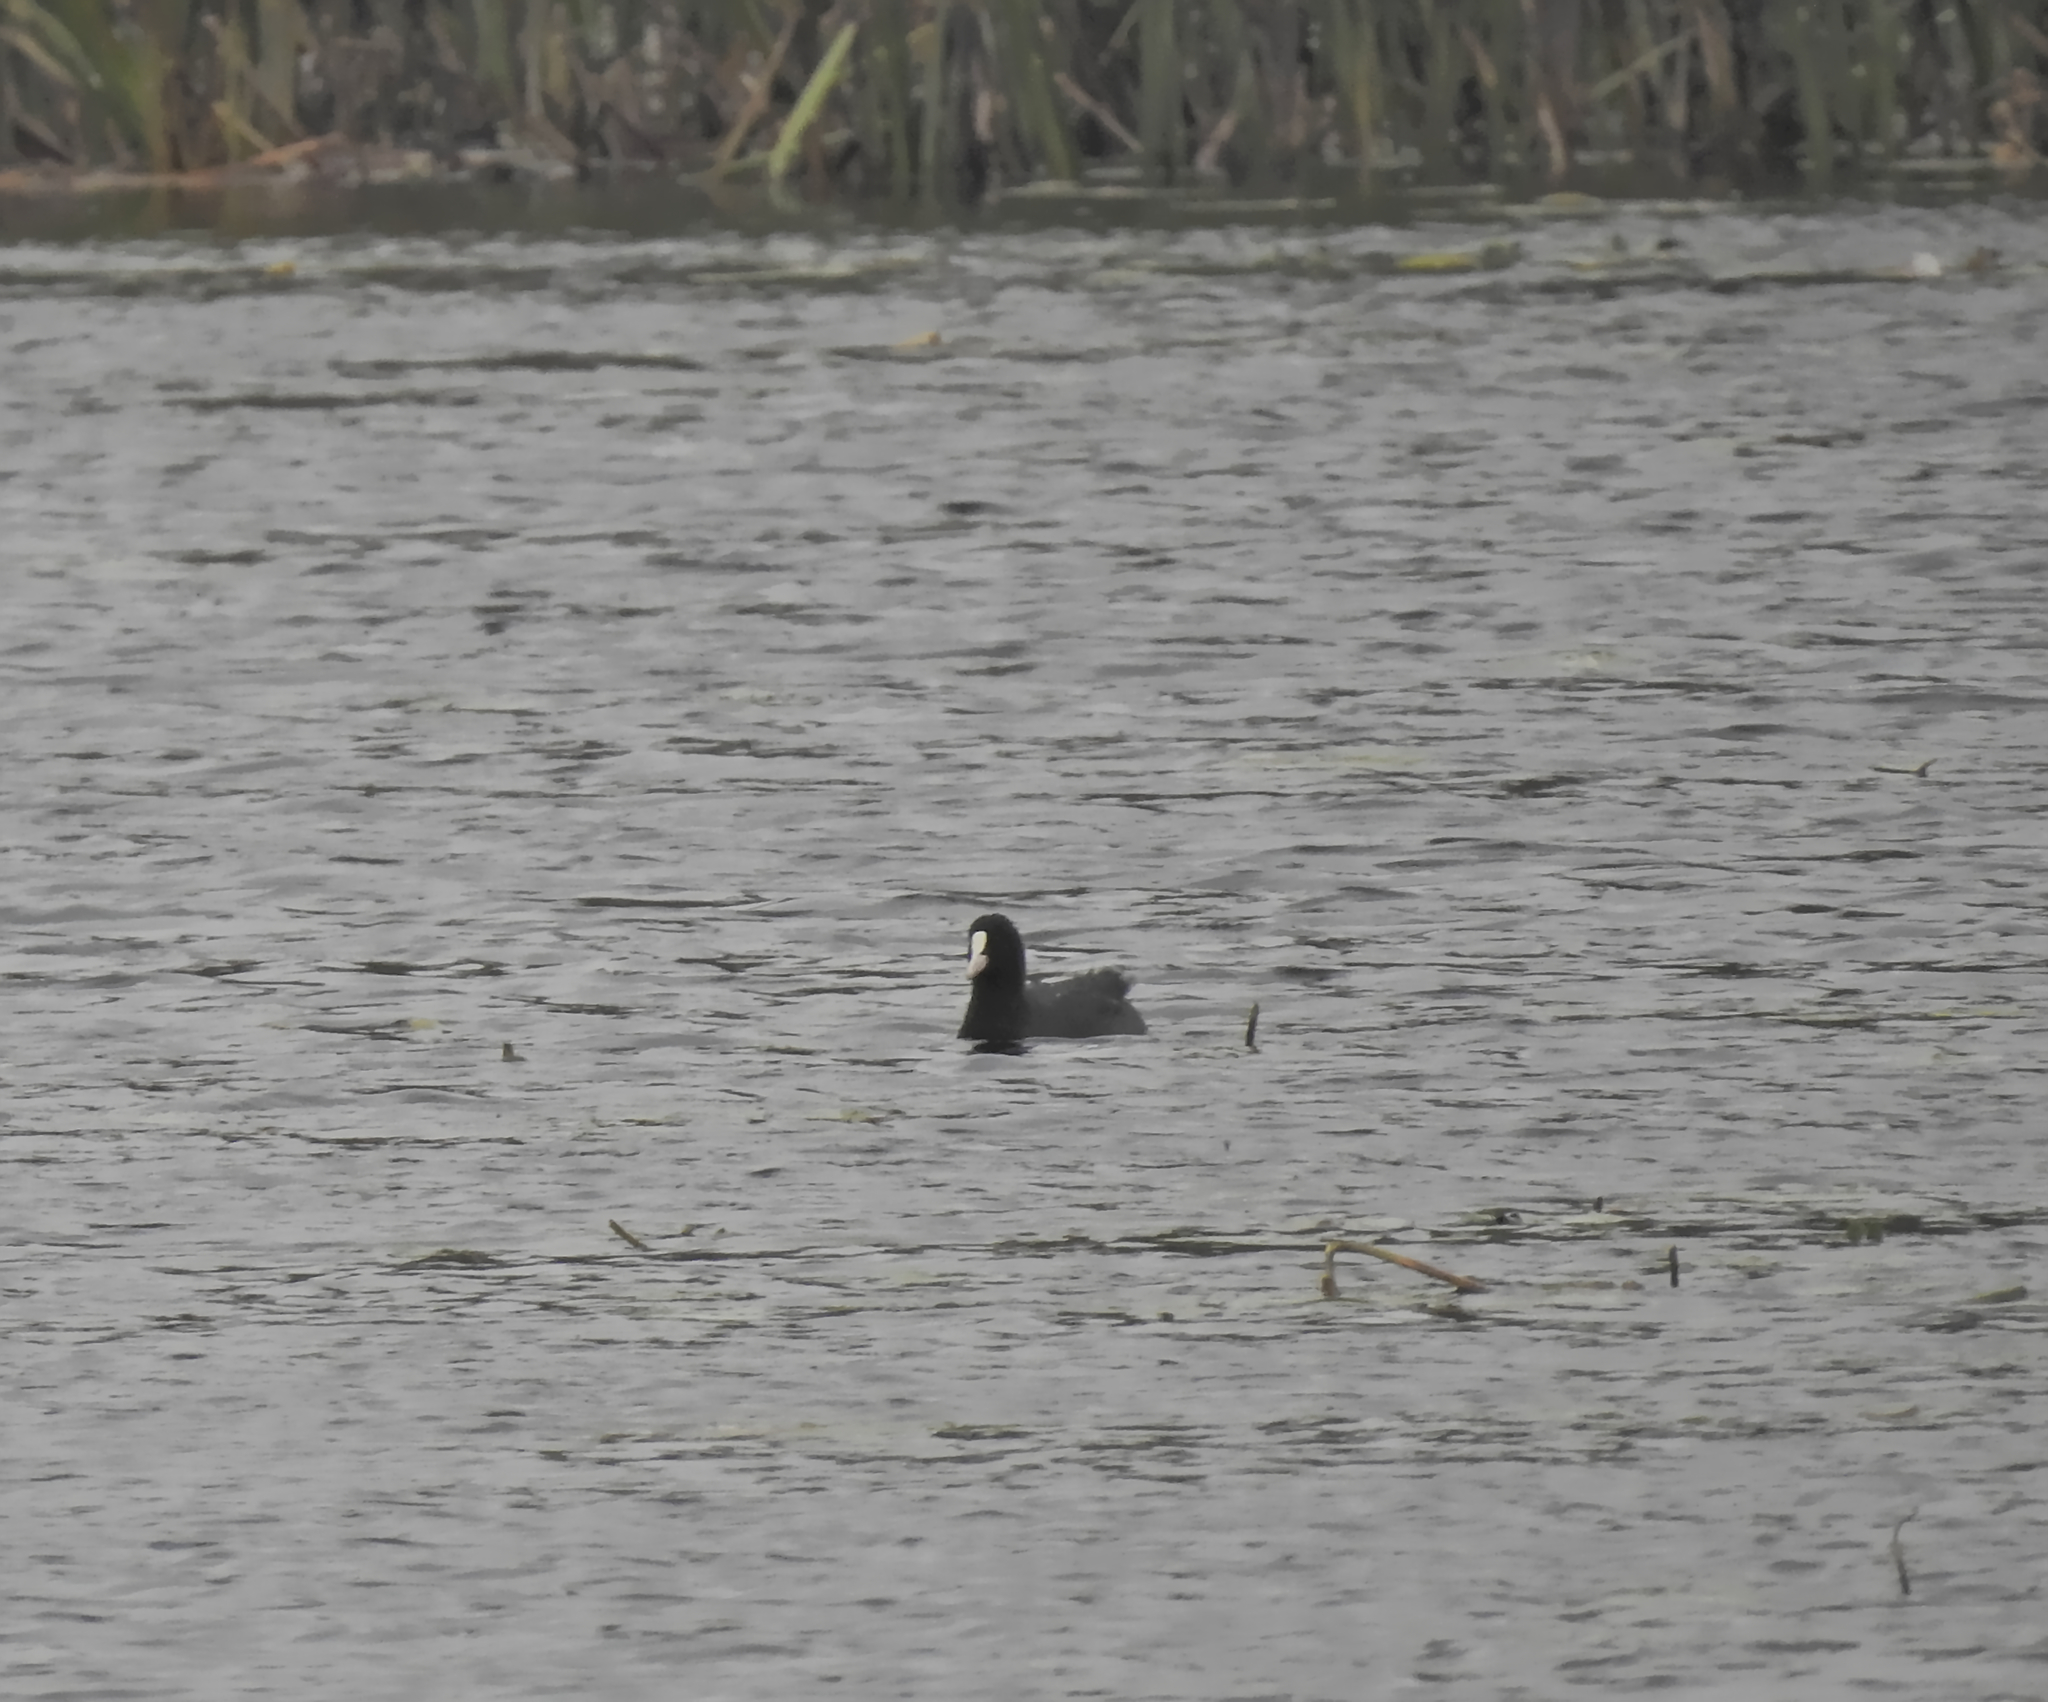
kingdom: Animalia
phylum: Chordata
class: Aves
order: Gruiformes
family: Rallidae
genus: Fulica
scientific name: Fulica atra
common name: Eurasian coot
